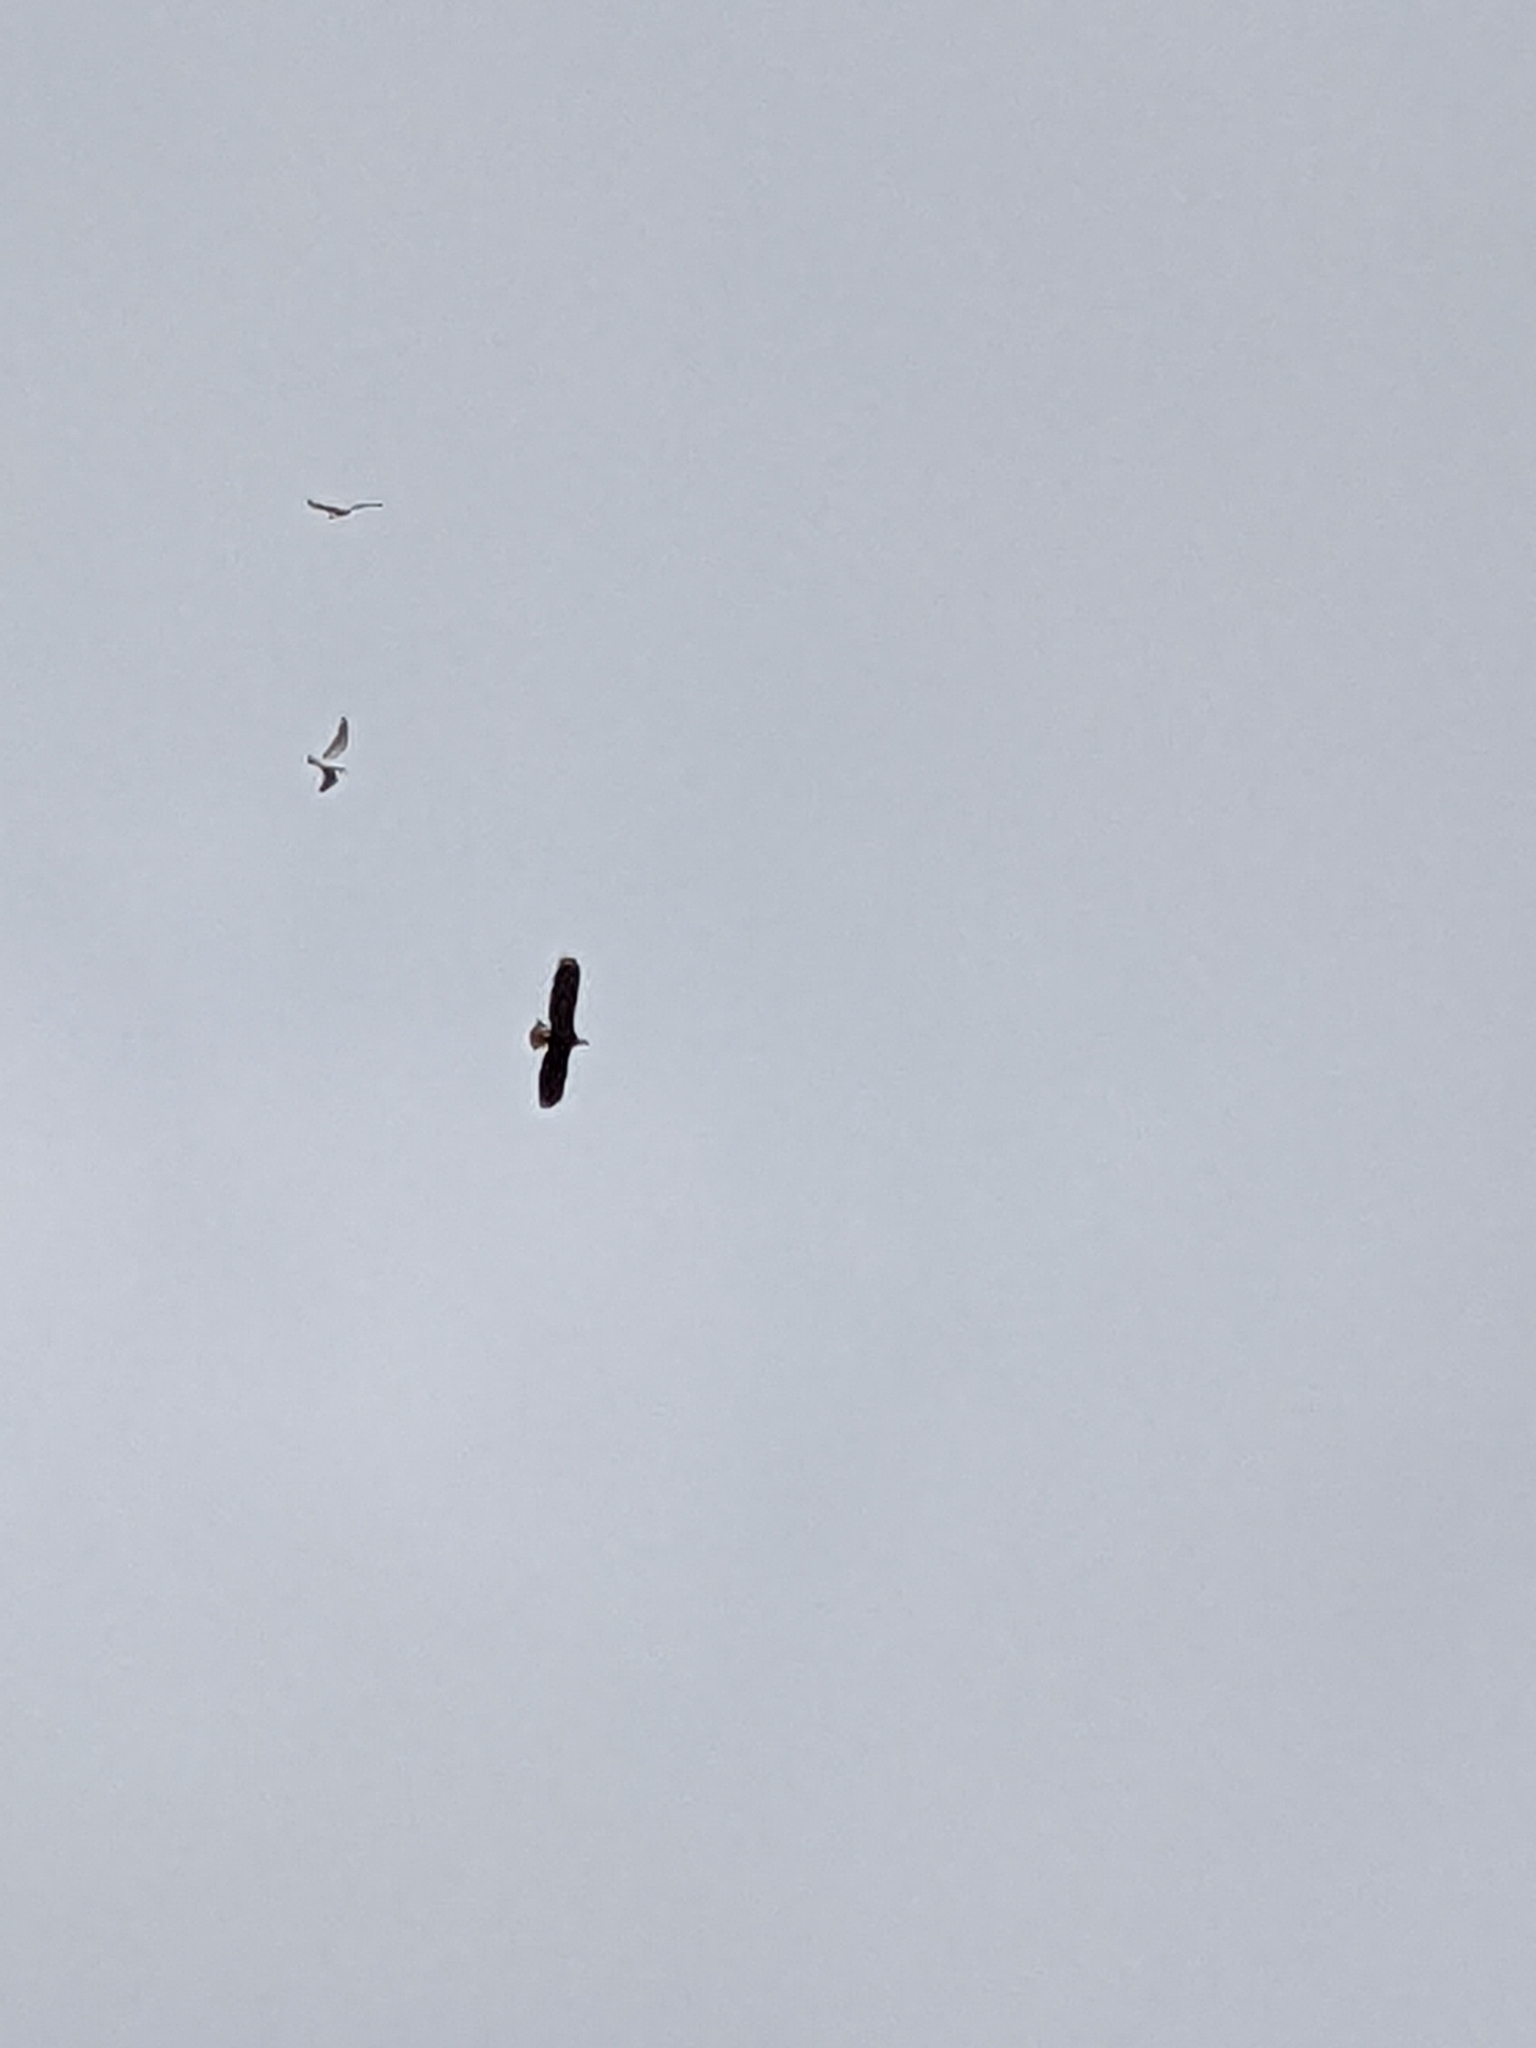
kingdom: Animalia
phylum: Chordata
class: Aves
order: Accipitriformes
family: Accipitridae
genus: Haliaeetus
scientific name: Haliaeetus leucocephalus
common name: Bald eagle
